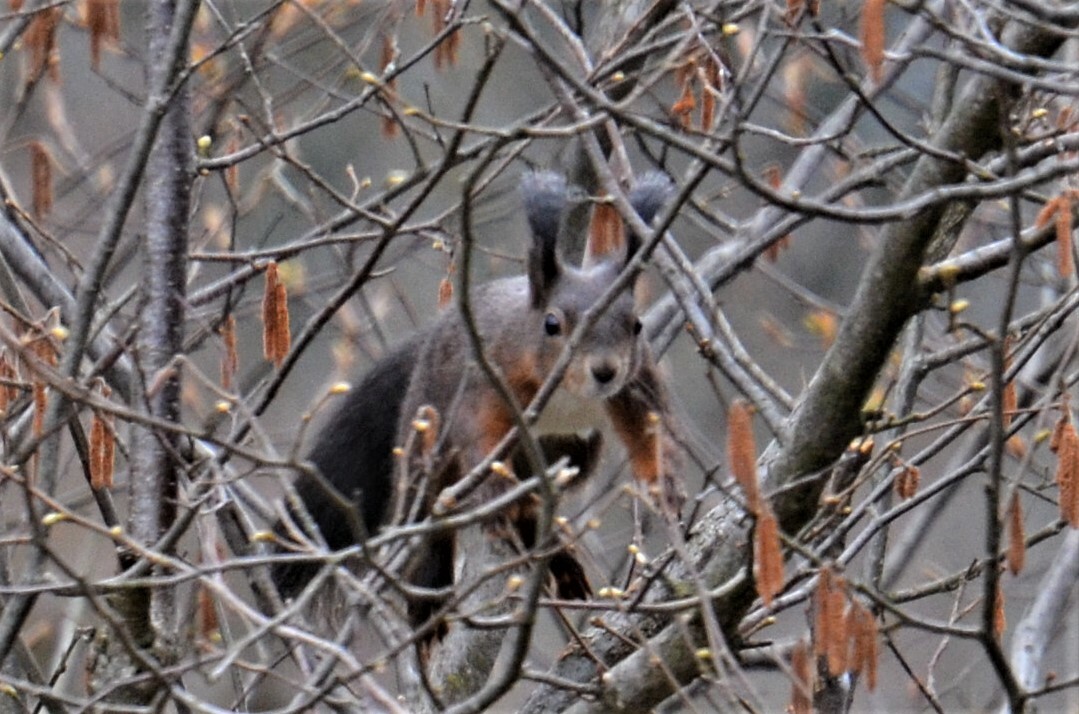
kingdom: Animalia
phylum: Chordata
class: Mammalia
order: Rodentia
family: Sciuridae
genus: Sciurus
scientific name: Sciurus vulgaris
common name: Eurasian red squirrel
